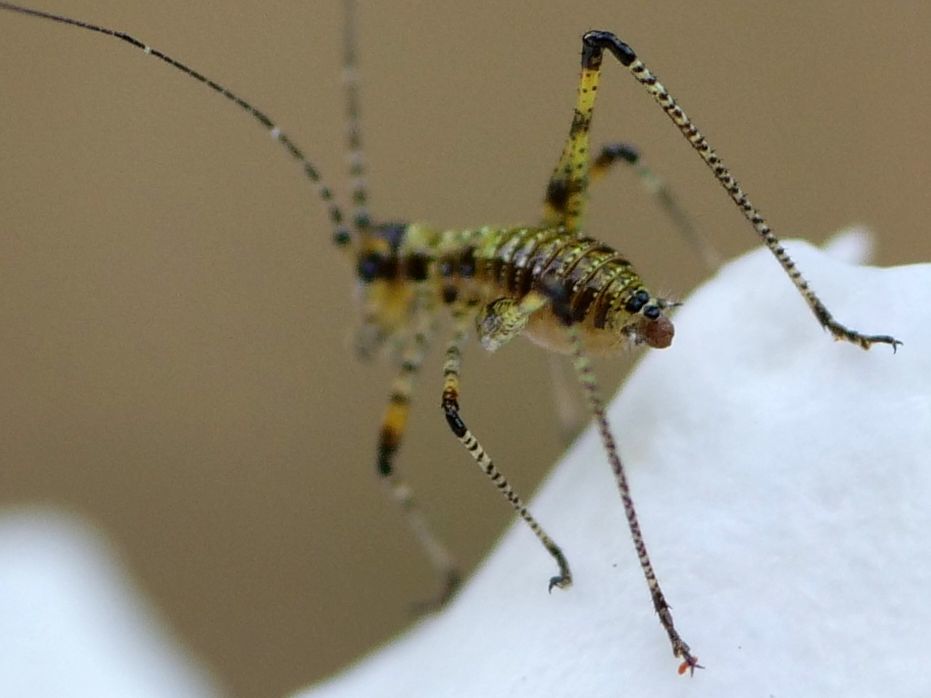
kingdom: Animalia
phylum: Arthropoda
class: Insecta
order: Orthoptera
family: Tettigoniidae
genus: Phaneroptera
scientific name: Phaneroptera nana
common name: Southern sickle bush-cricket
